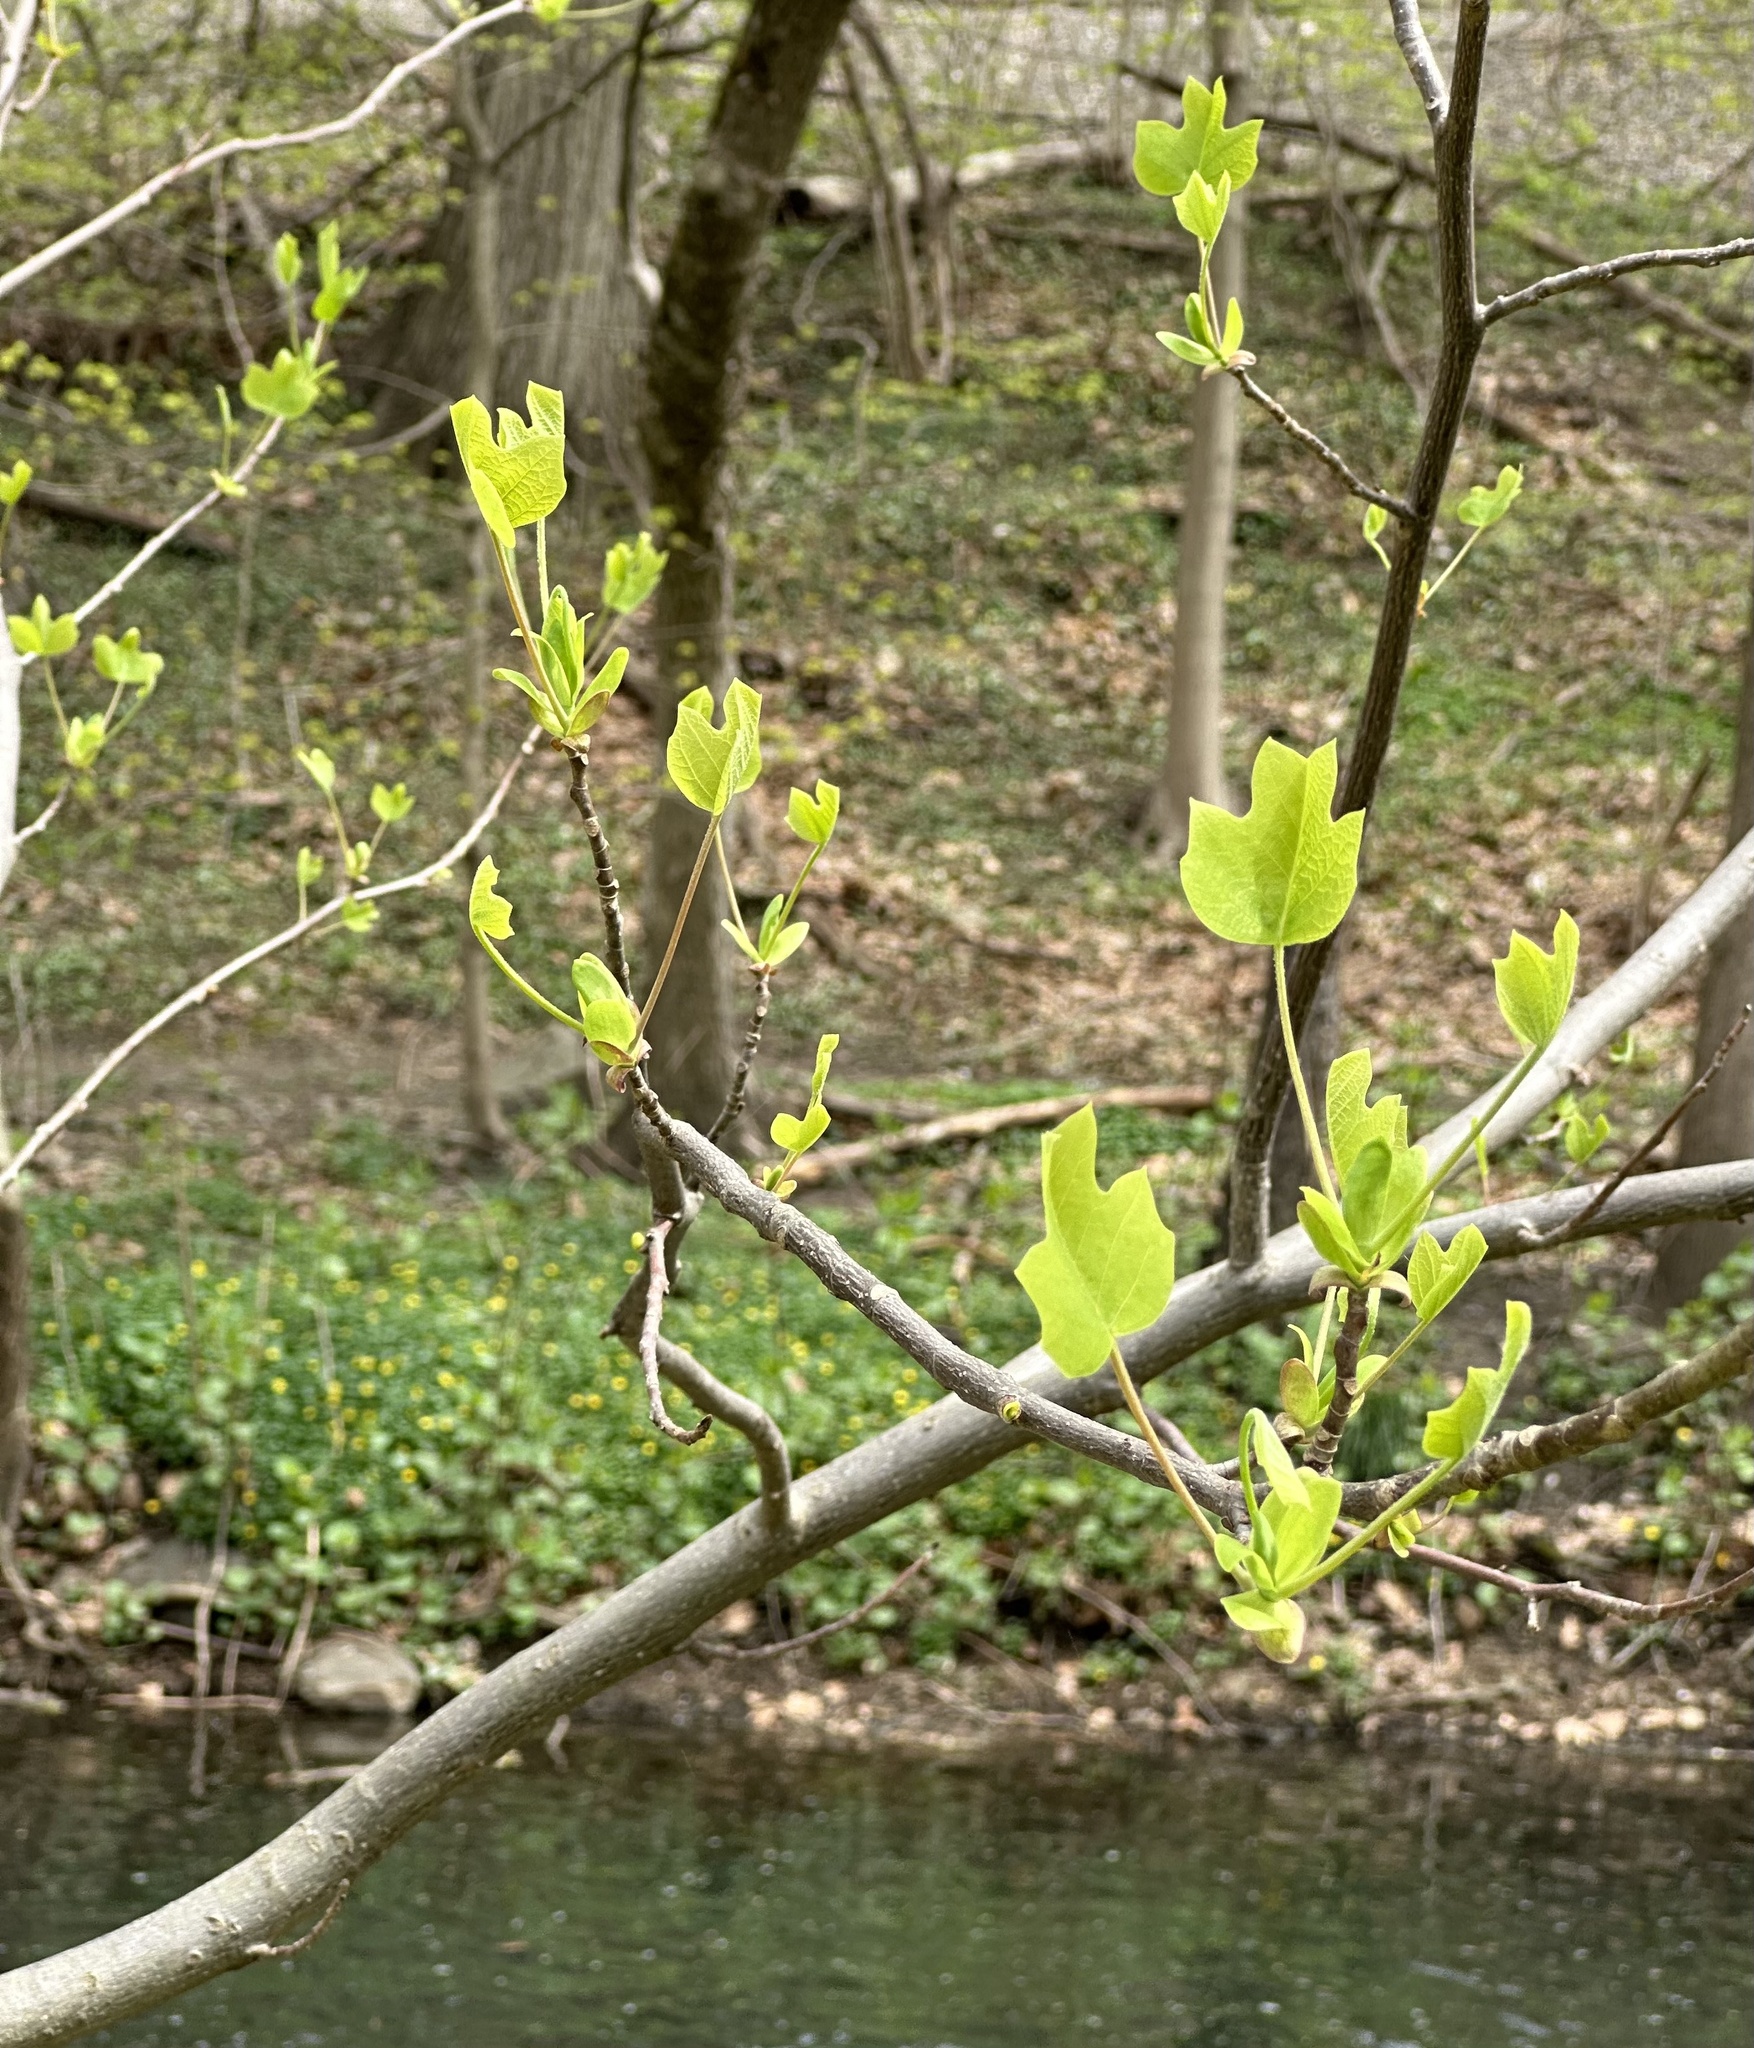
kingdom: Plantae
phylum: Tracheophyta
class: Magnoliopsida
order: Magnoliales
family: Magnoliaceae
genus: Liriodendron
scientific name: Liriodendron tulipifera
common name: Tulip tree
